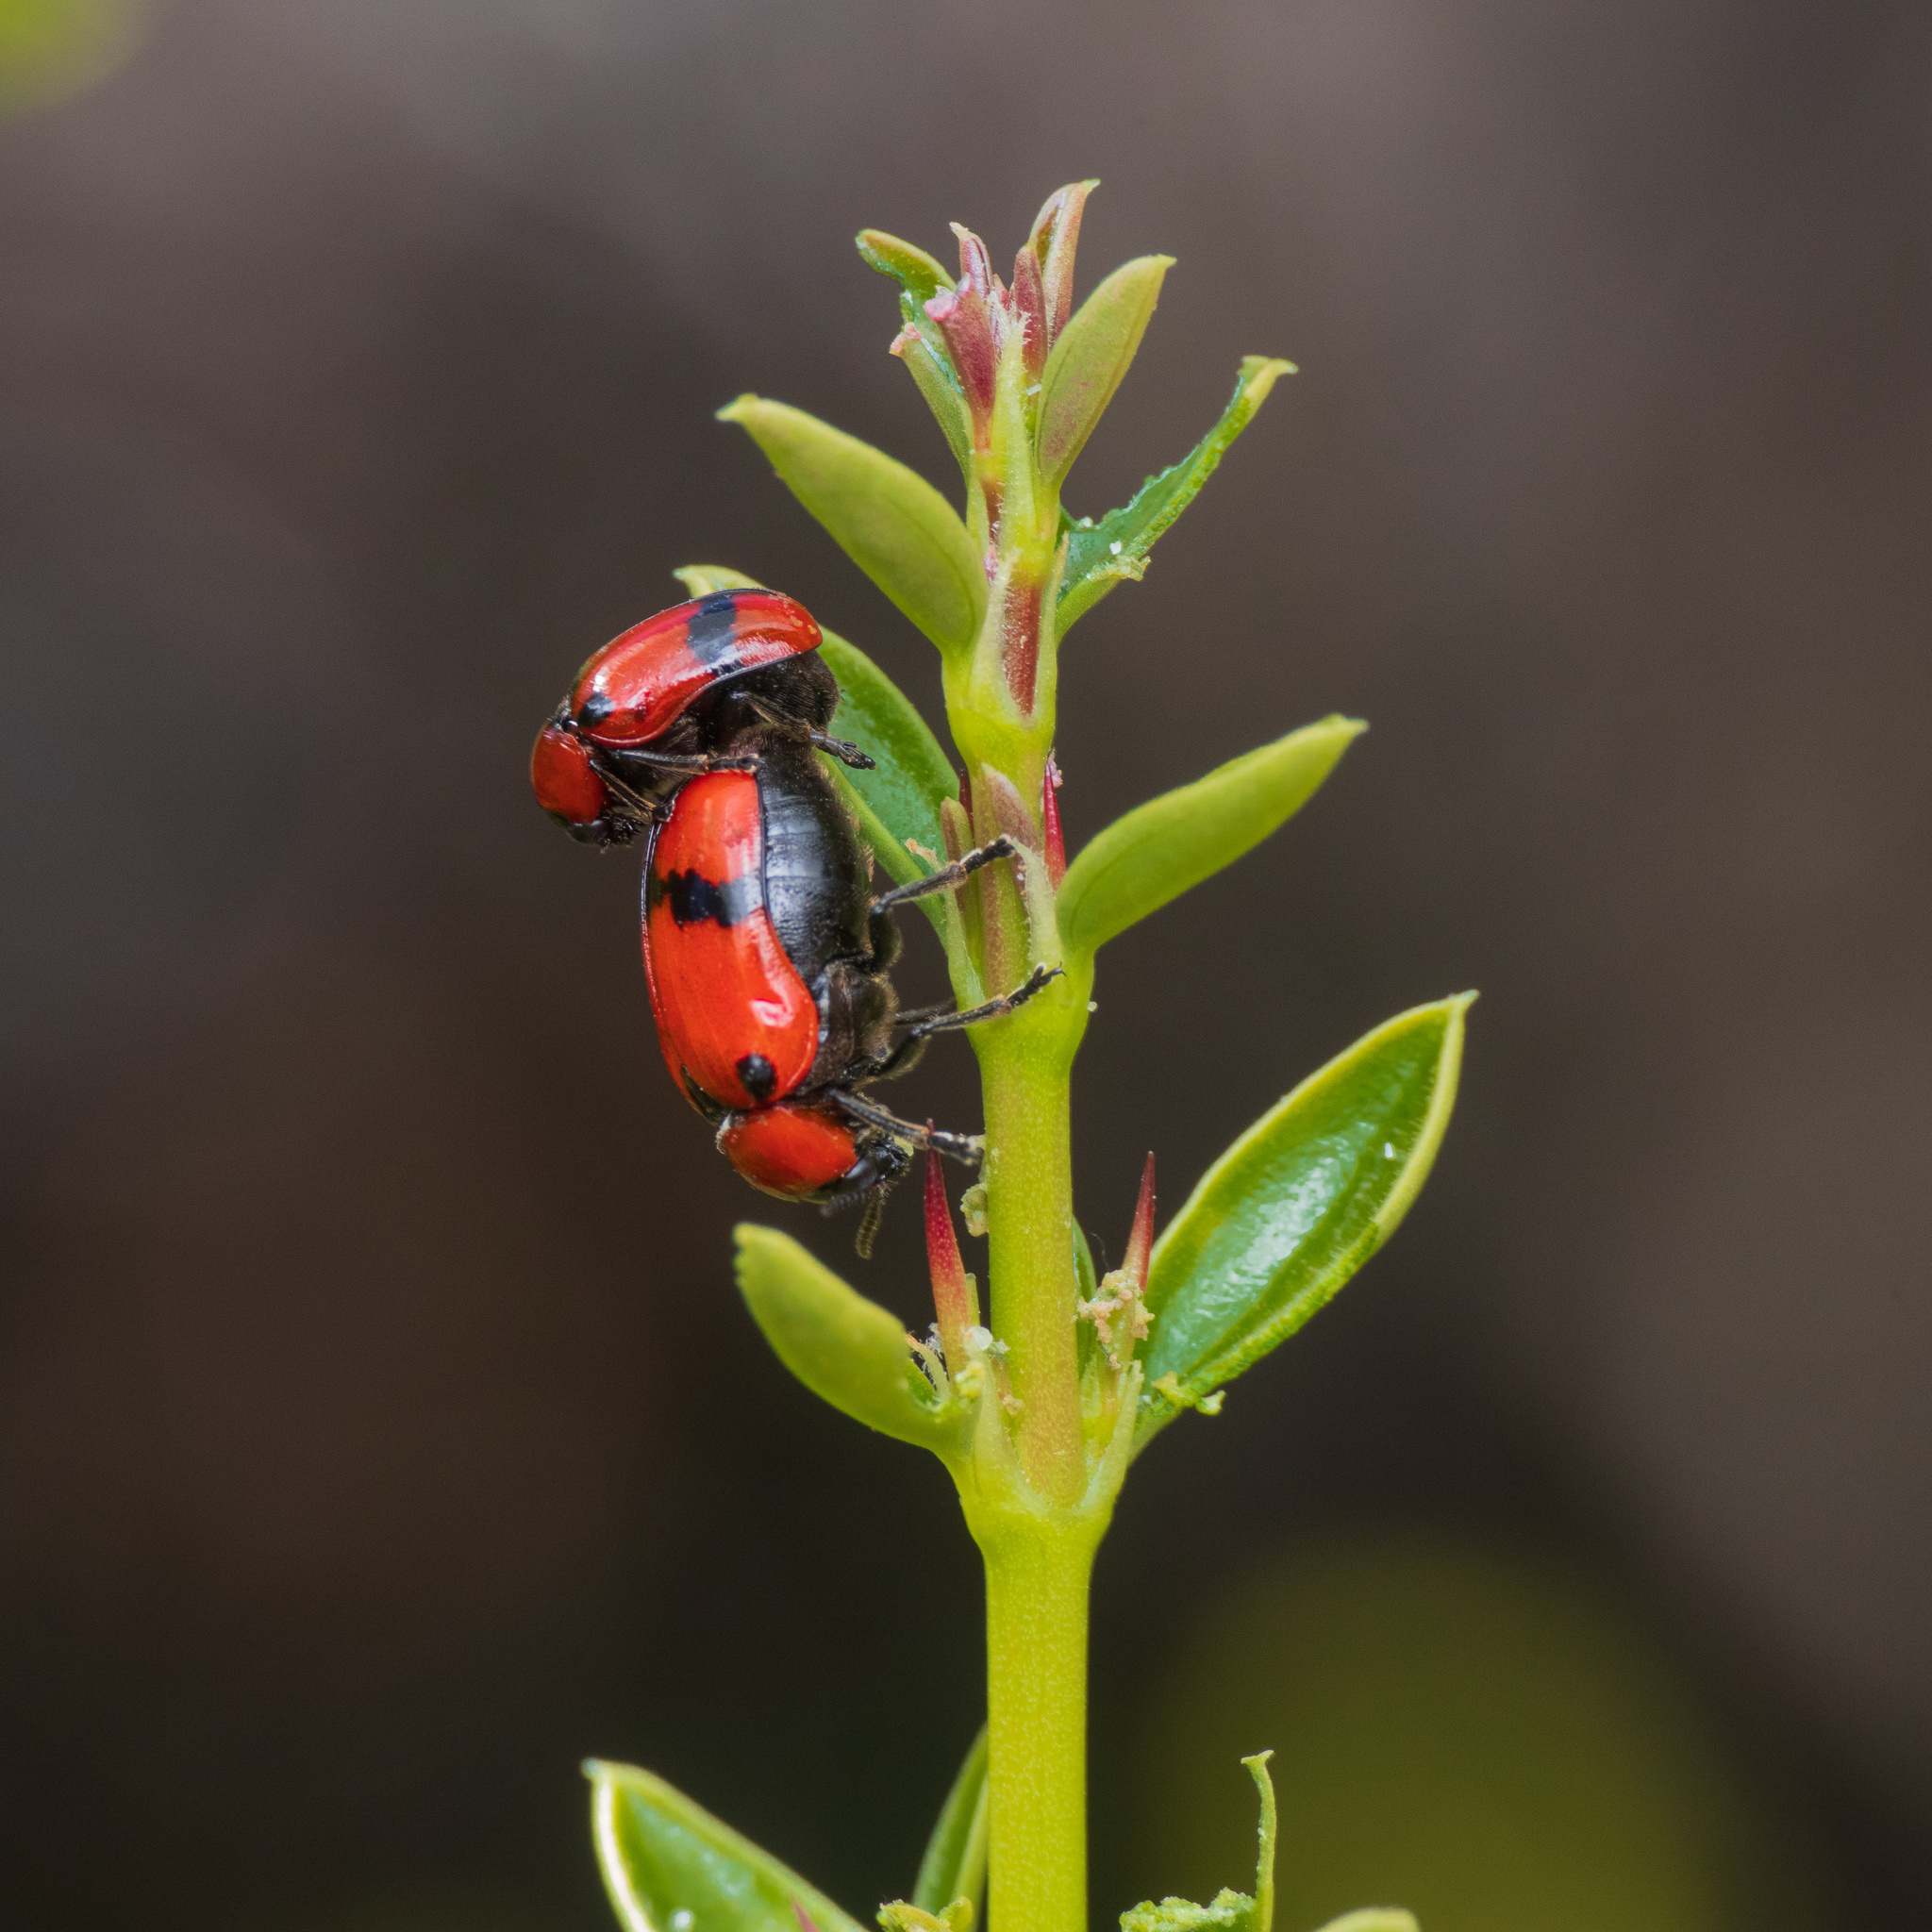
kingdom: Animalia
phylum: Arthropoda
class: Insecta
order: Coleoptera
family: Chrysomelidae
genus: Dachrys
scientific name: Dachrys
